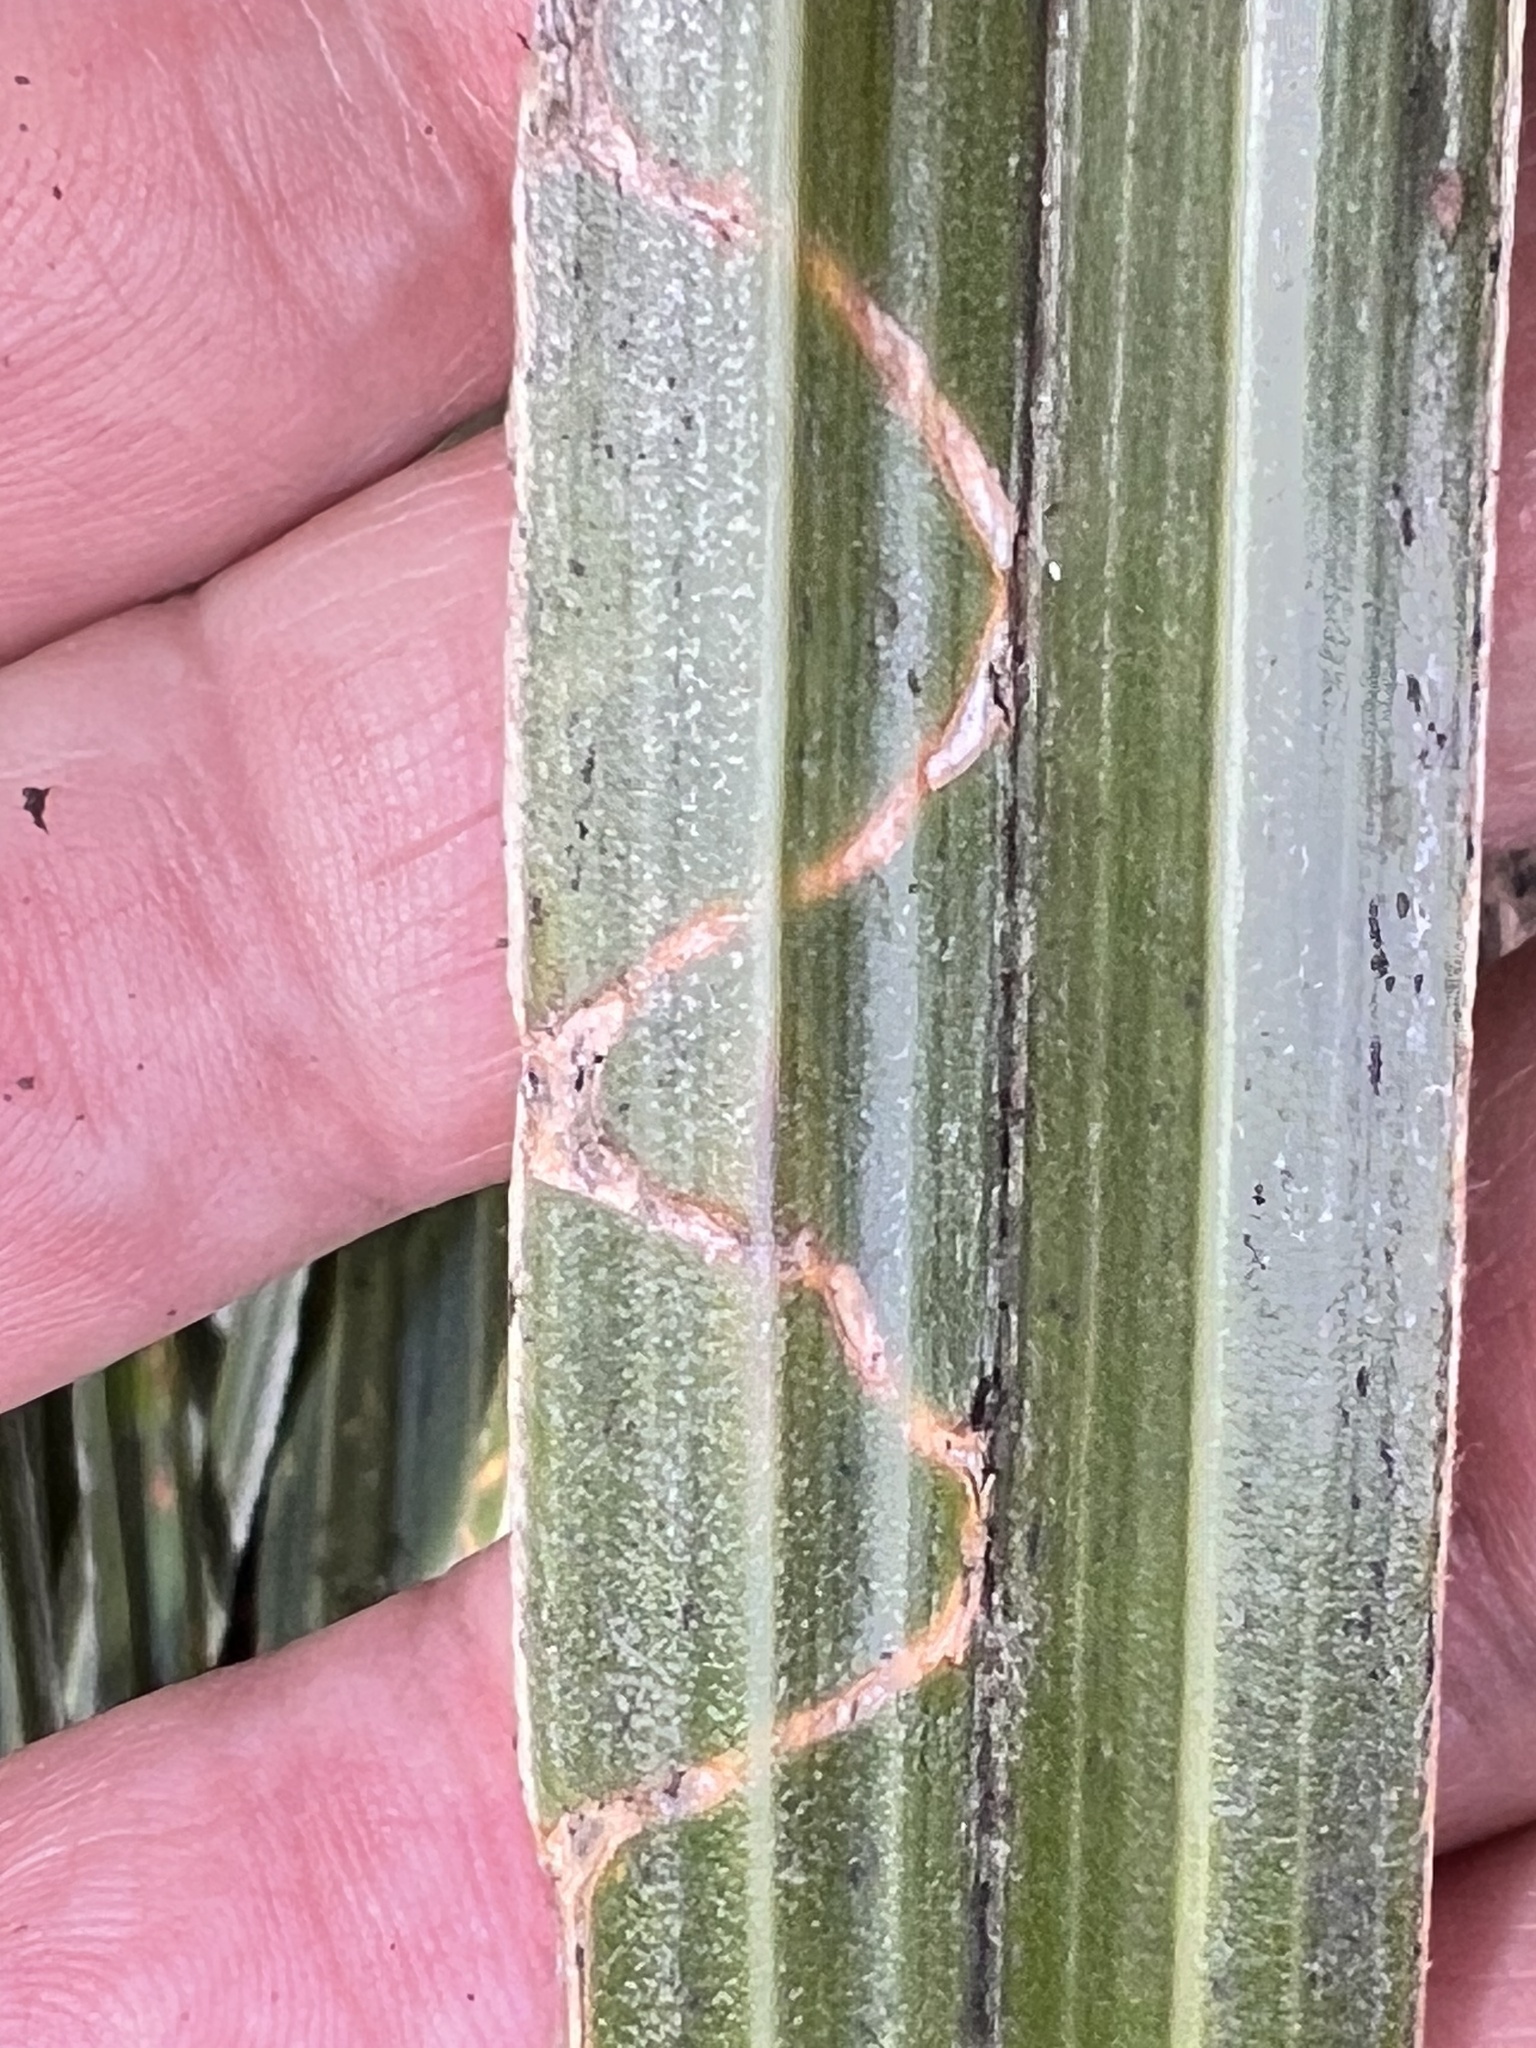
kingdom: Plantae
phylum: Tracheophyta
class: Liliopsida
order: Asparagales
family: Asteliaceae
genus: Astelia
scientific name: Astelia nervosa
